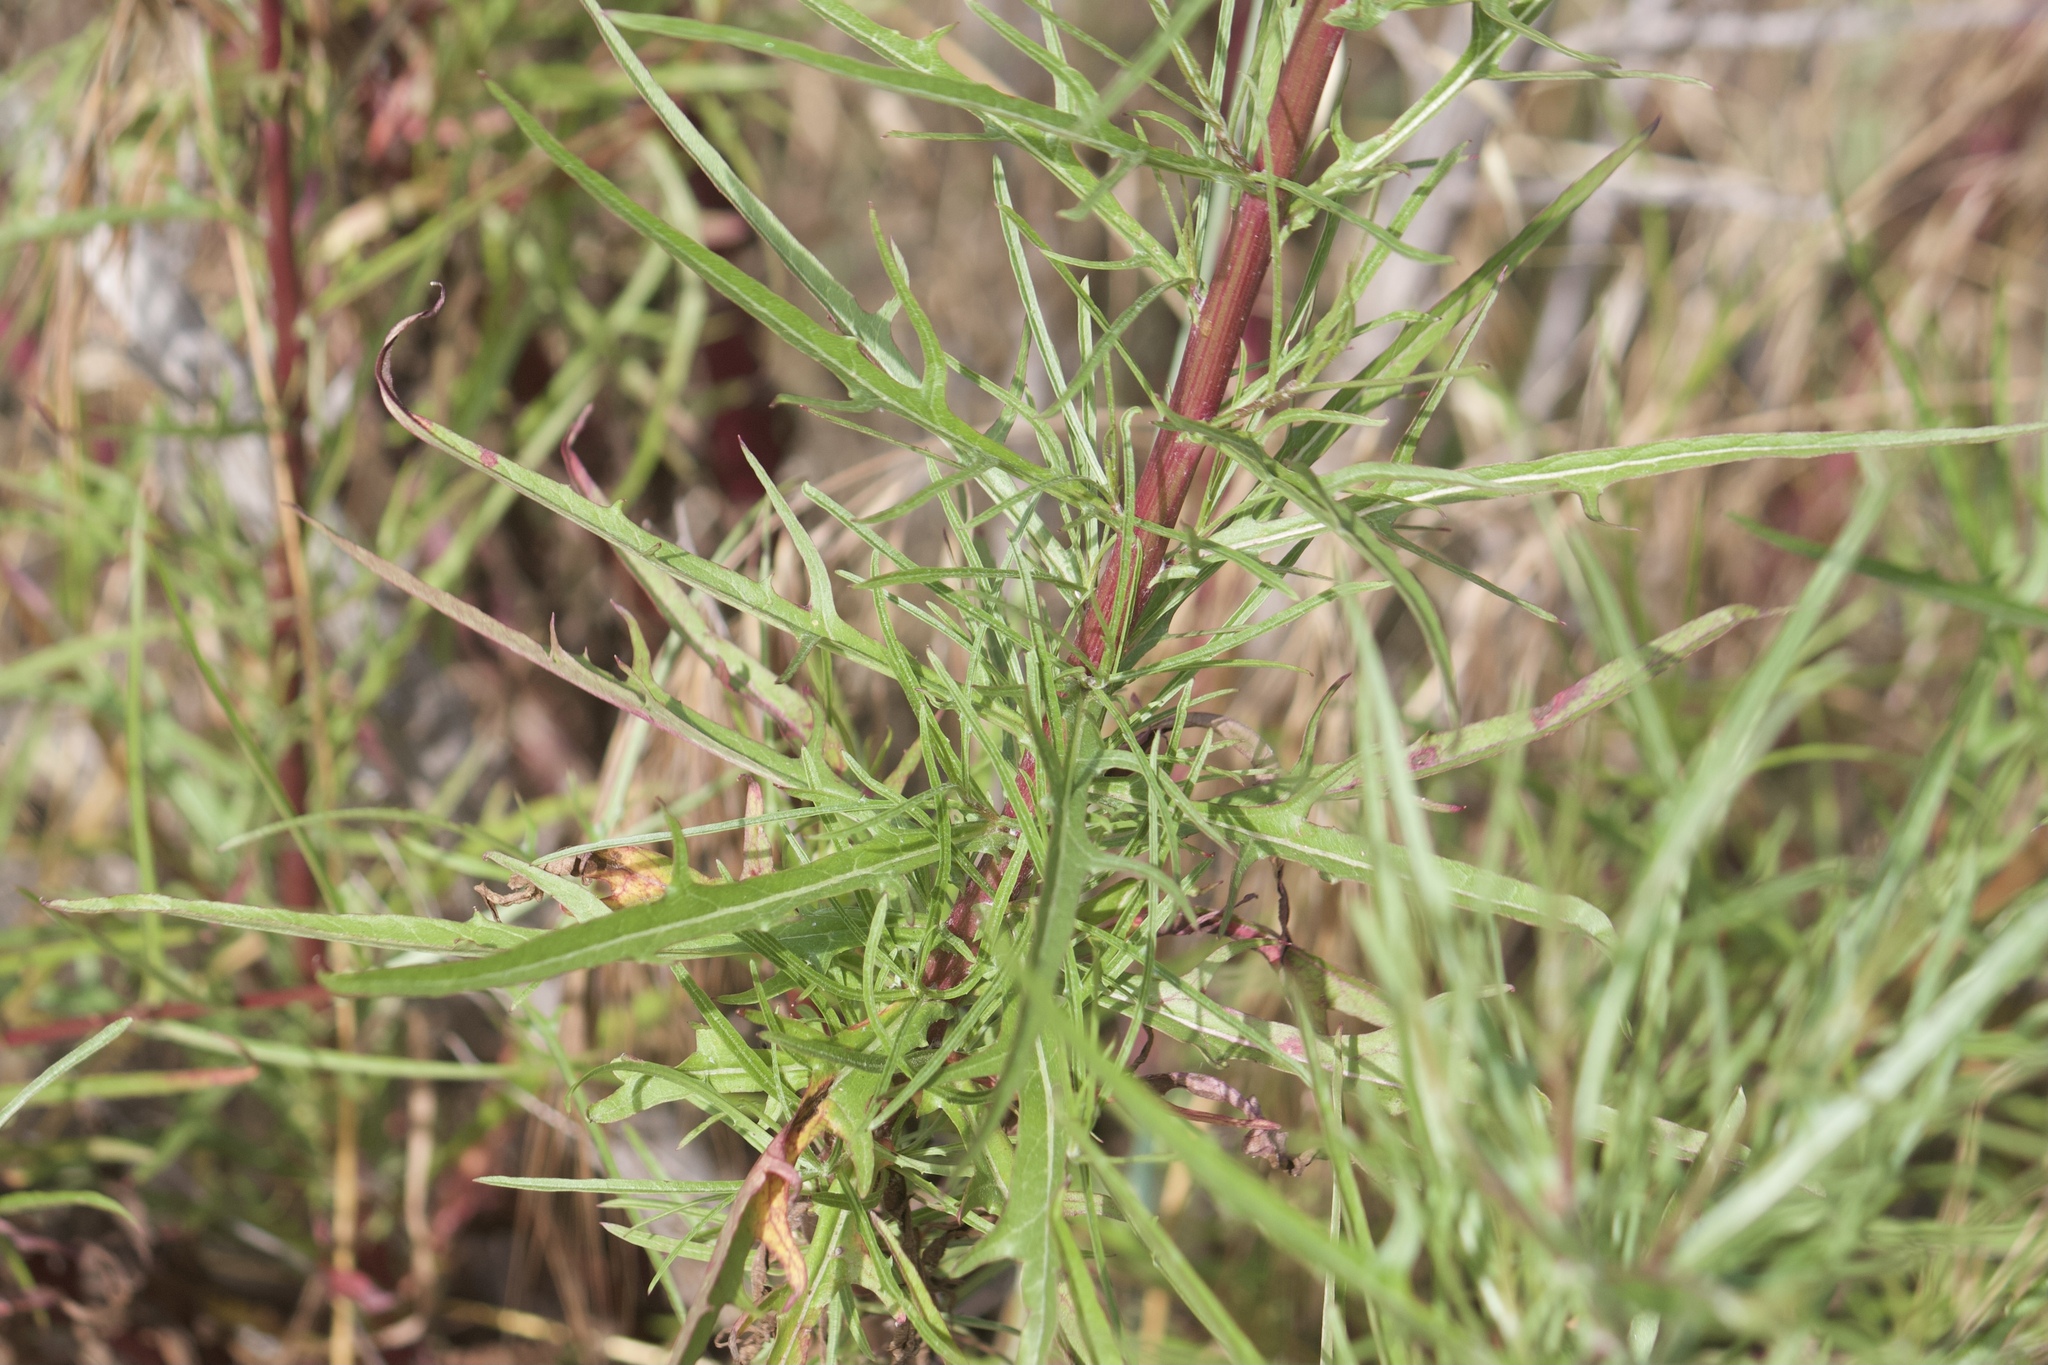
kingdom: Plantae
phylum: Tracheophyta
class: Magnoliopsida
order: Asterales
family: Asteraceae
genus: Malacothrix
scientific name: Malacothrix saxatilis
